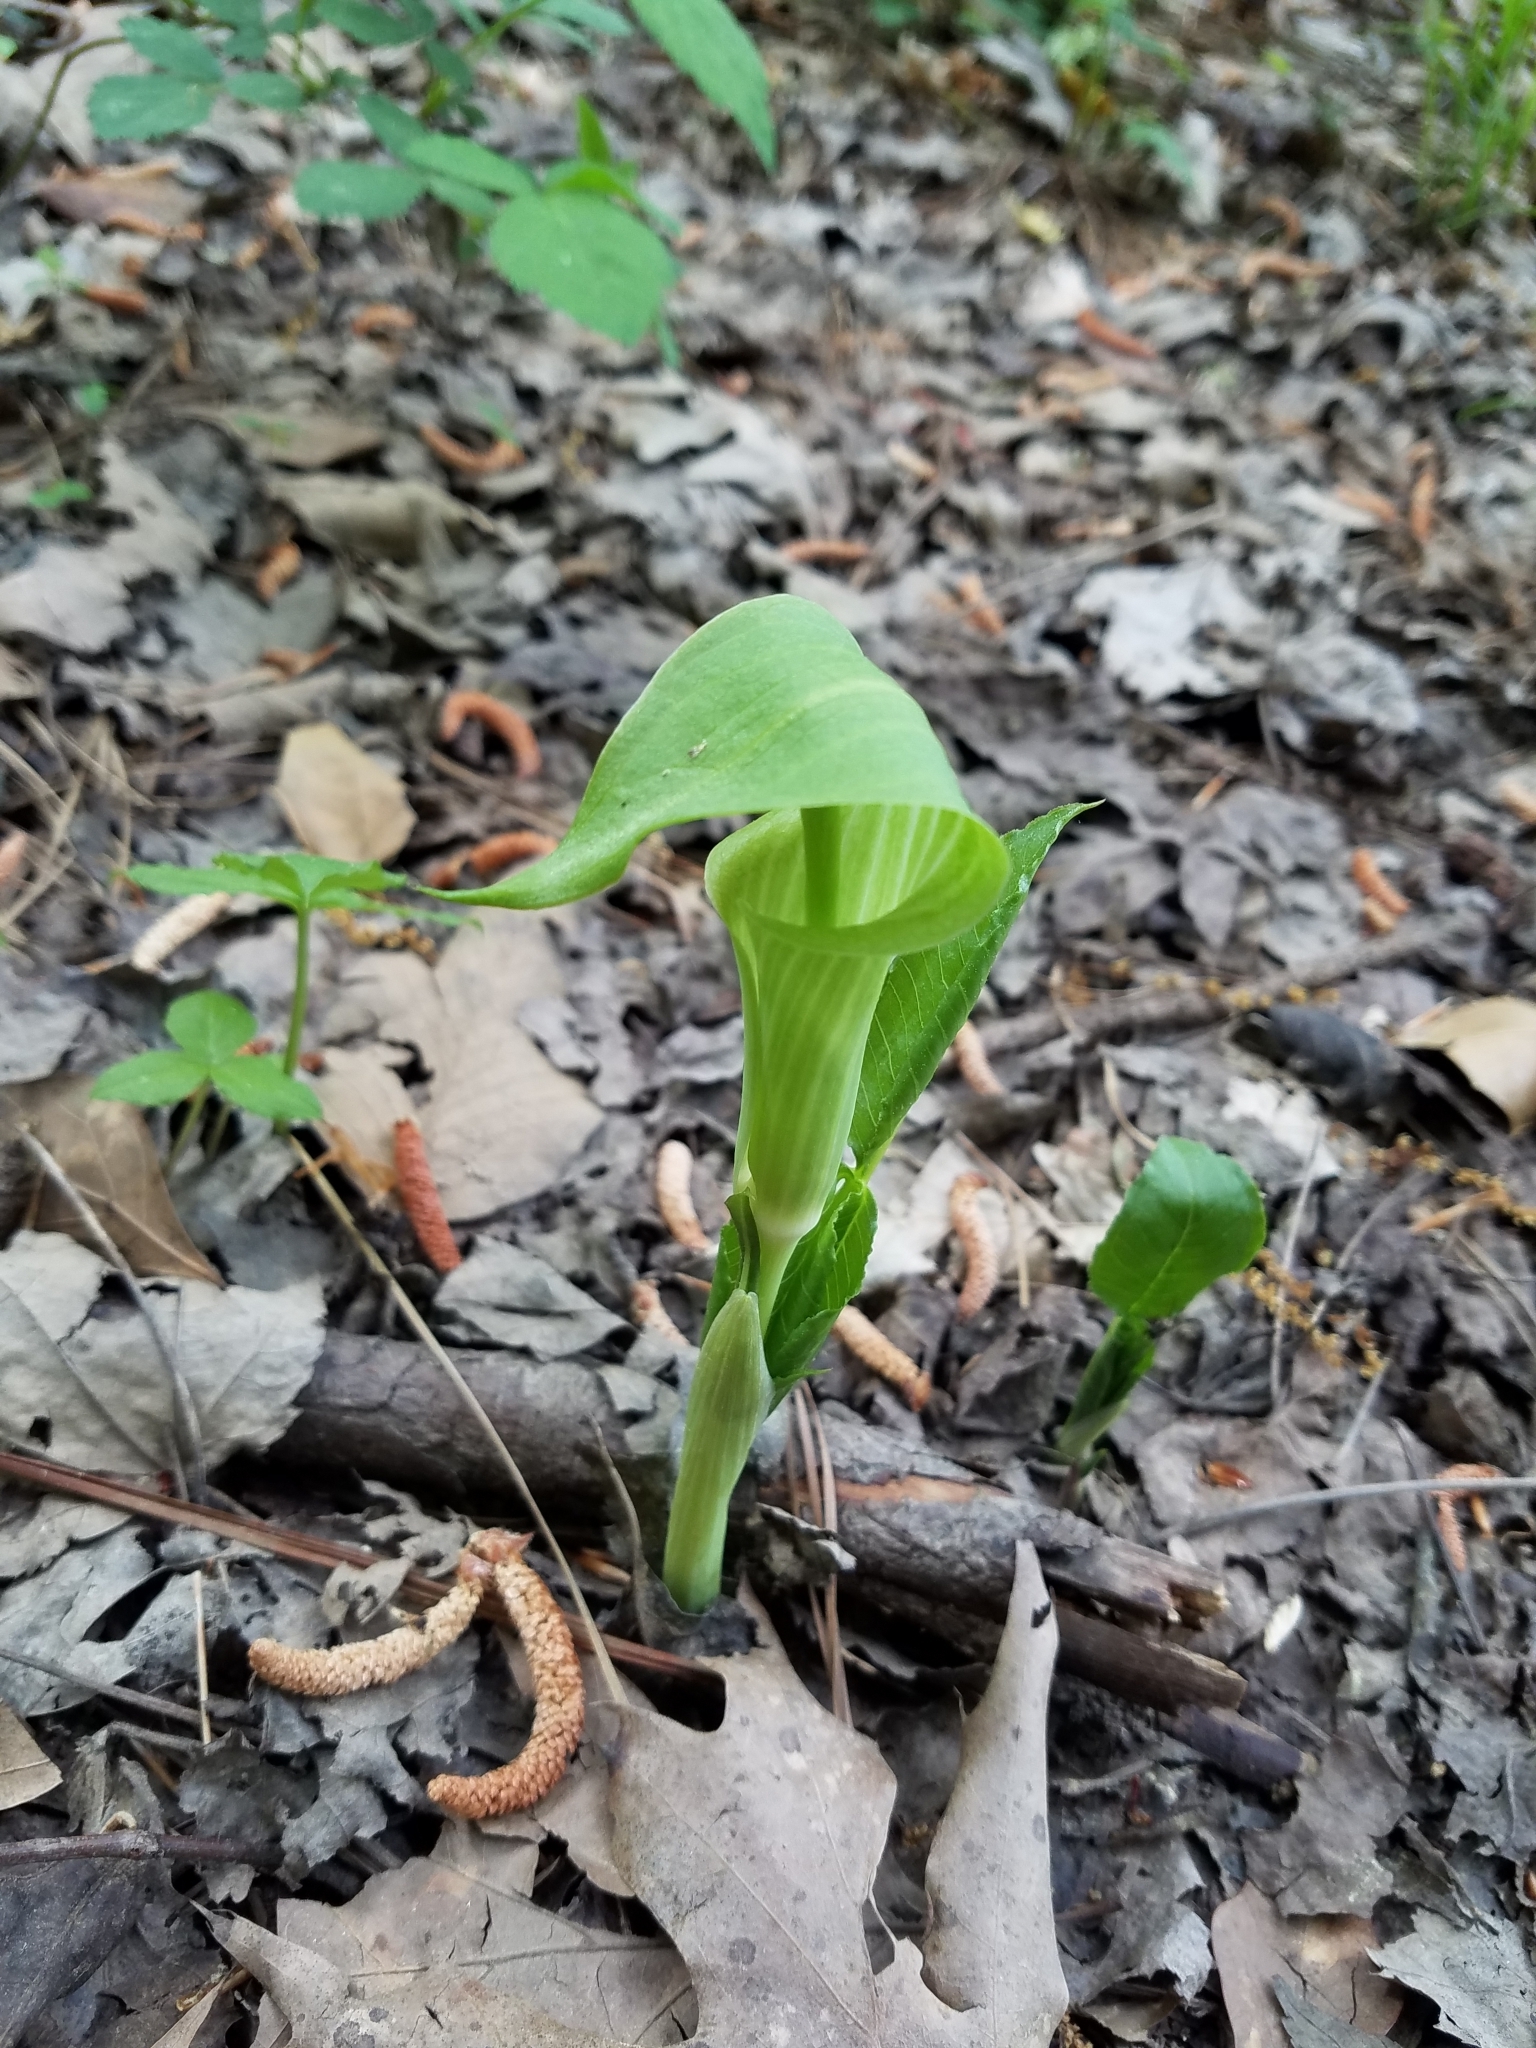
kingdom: Plantae
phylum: Tracheophyta
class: Liliopsida
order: Alismatales
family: Araceae
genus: Arisaema
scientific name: Arisaema triphyllum
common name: Jack-in-the-pulpit
